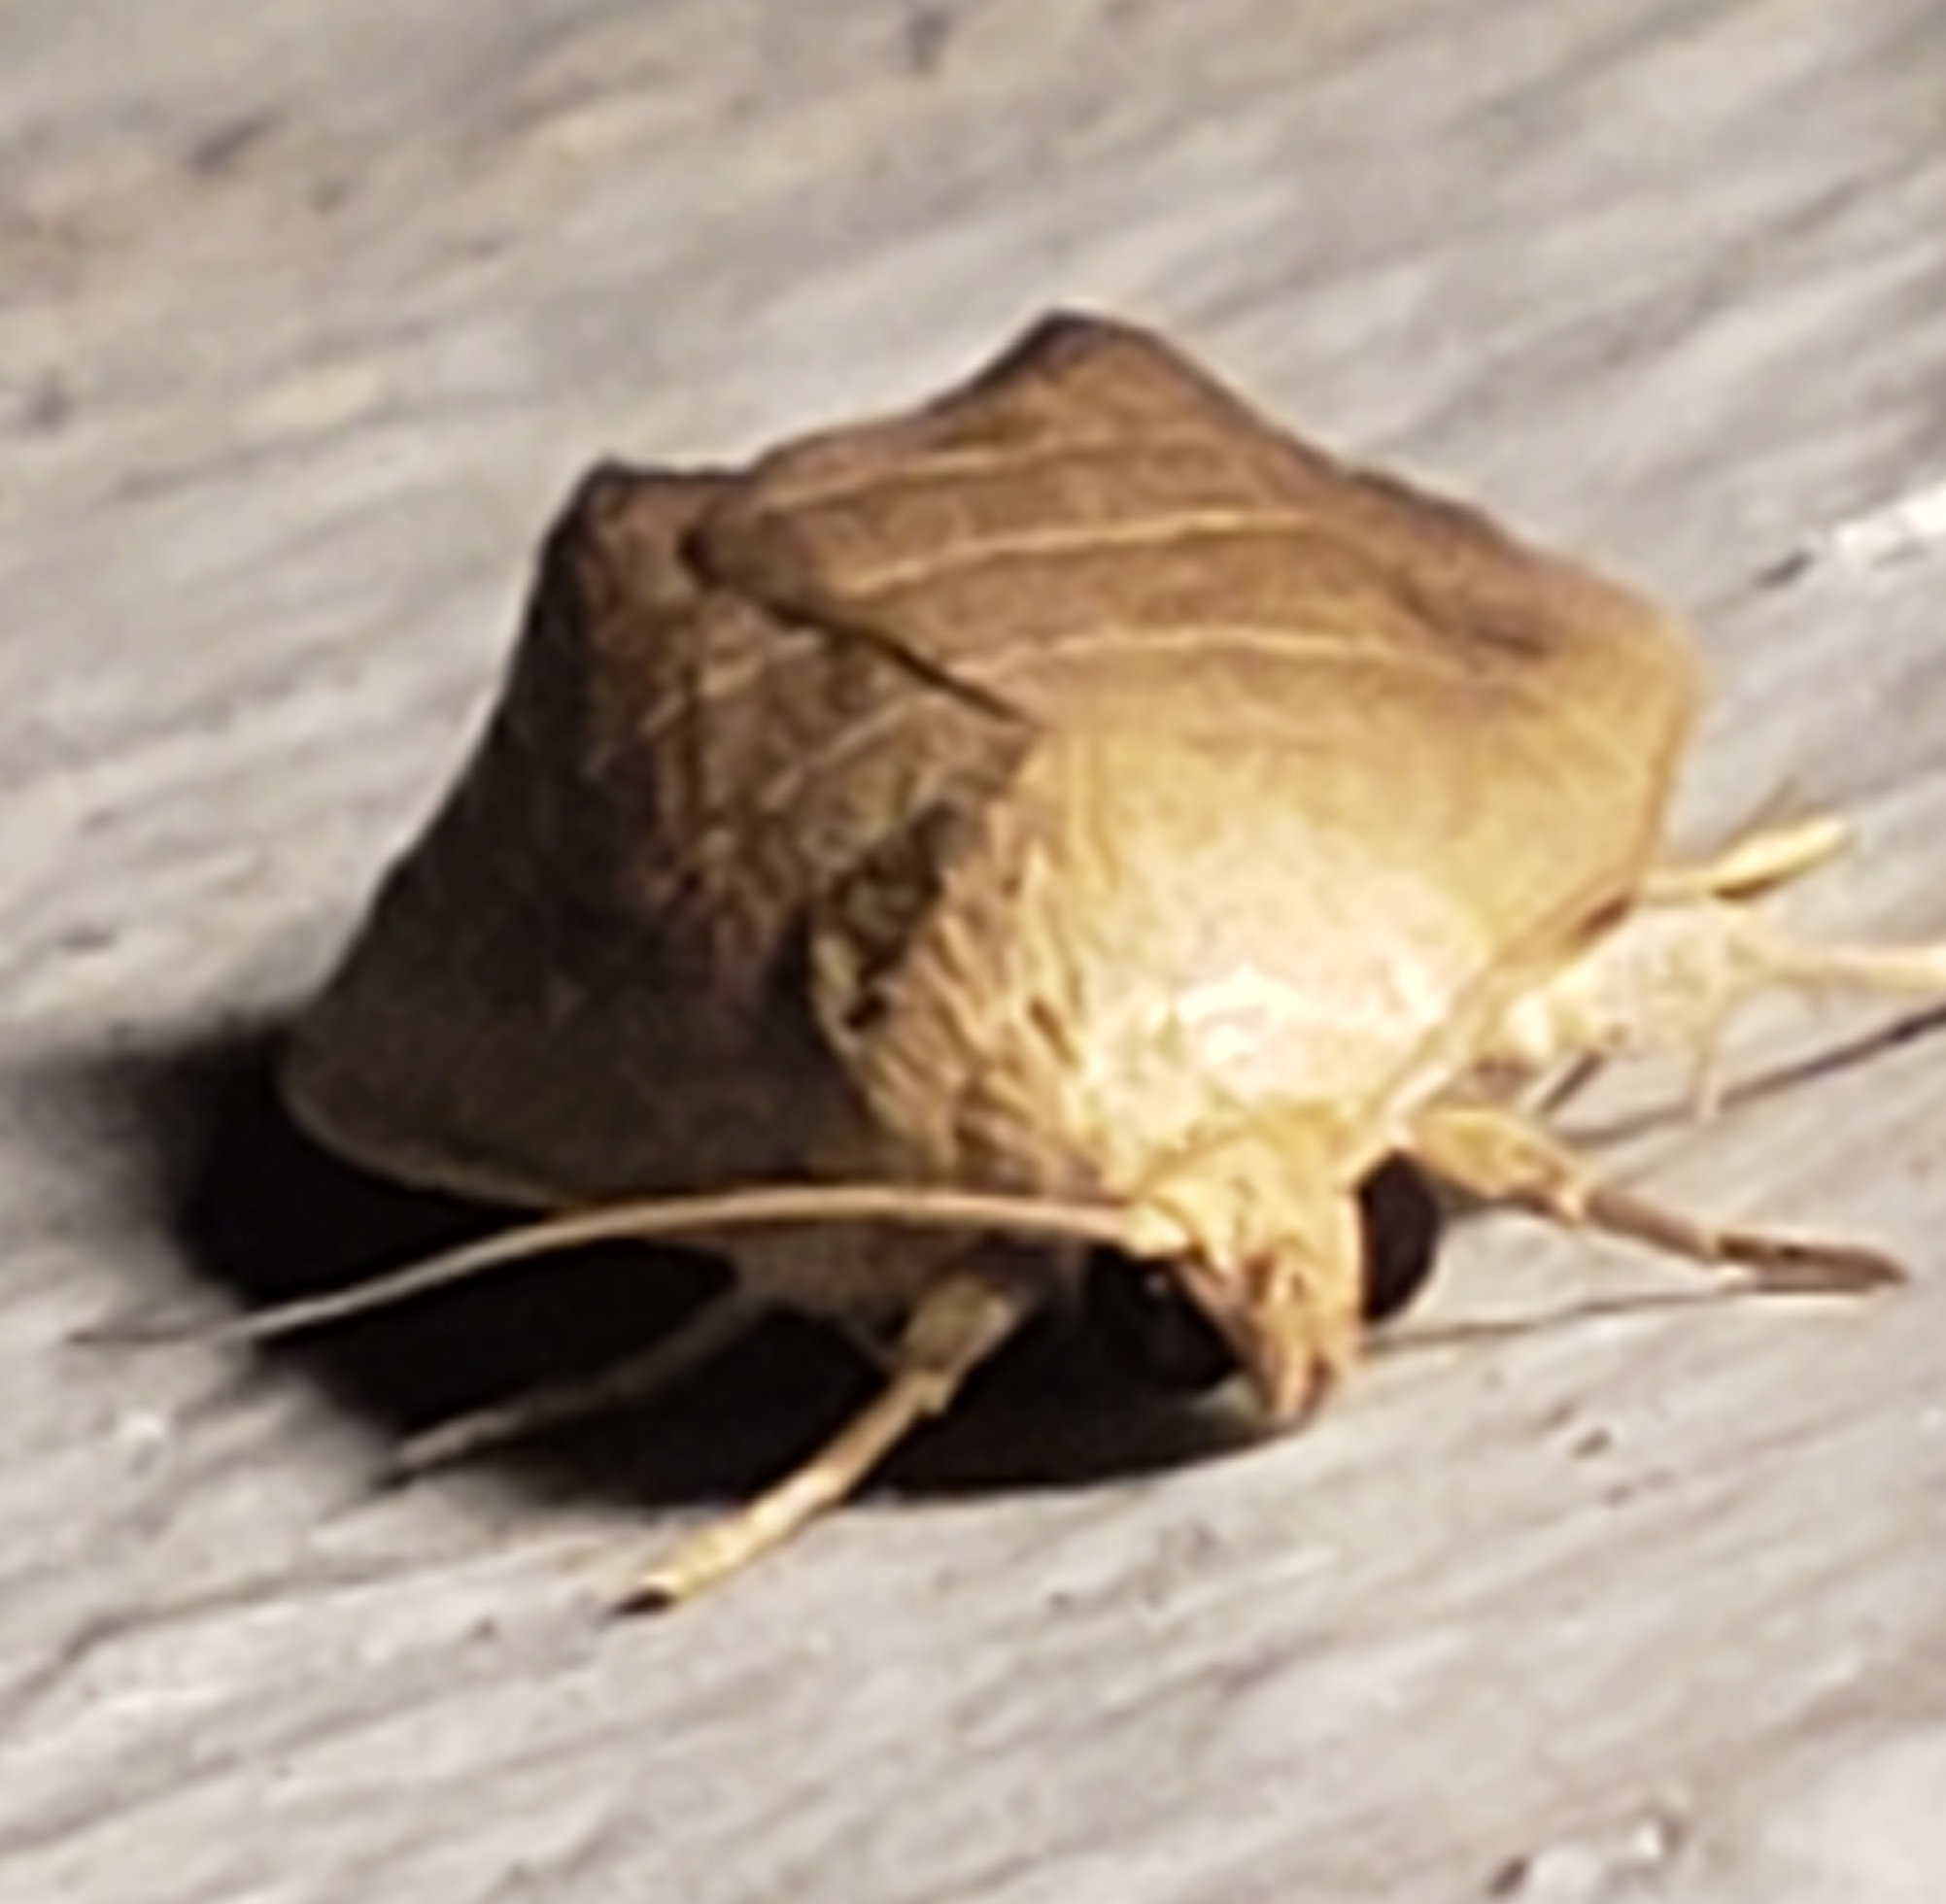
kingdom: Animalia
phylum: Arthropoda
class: Insecta
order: Lepidoptera
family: Noctuidae
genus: Bagisara
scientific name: Bagisara repanda
